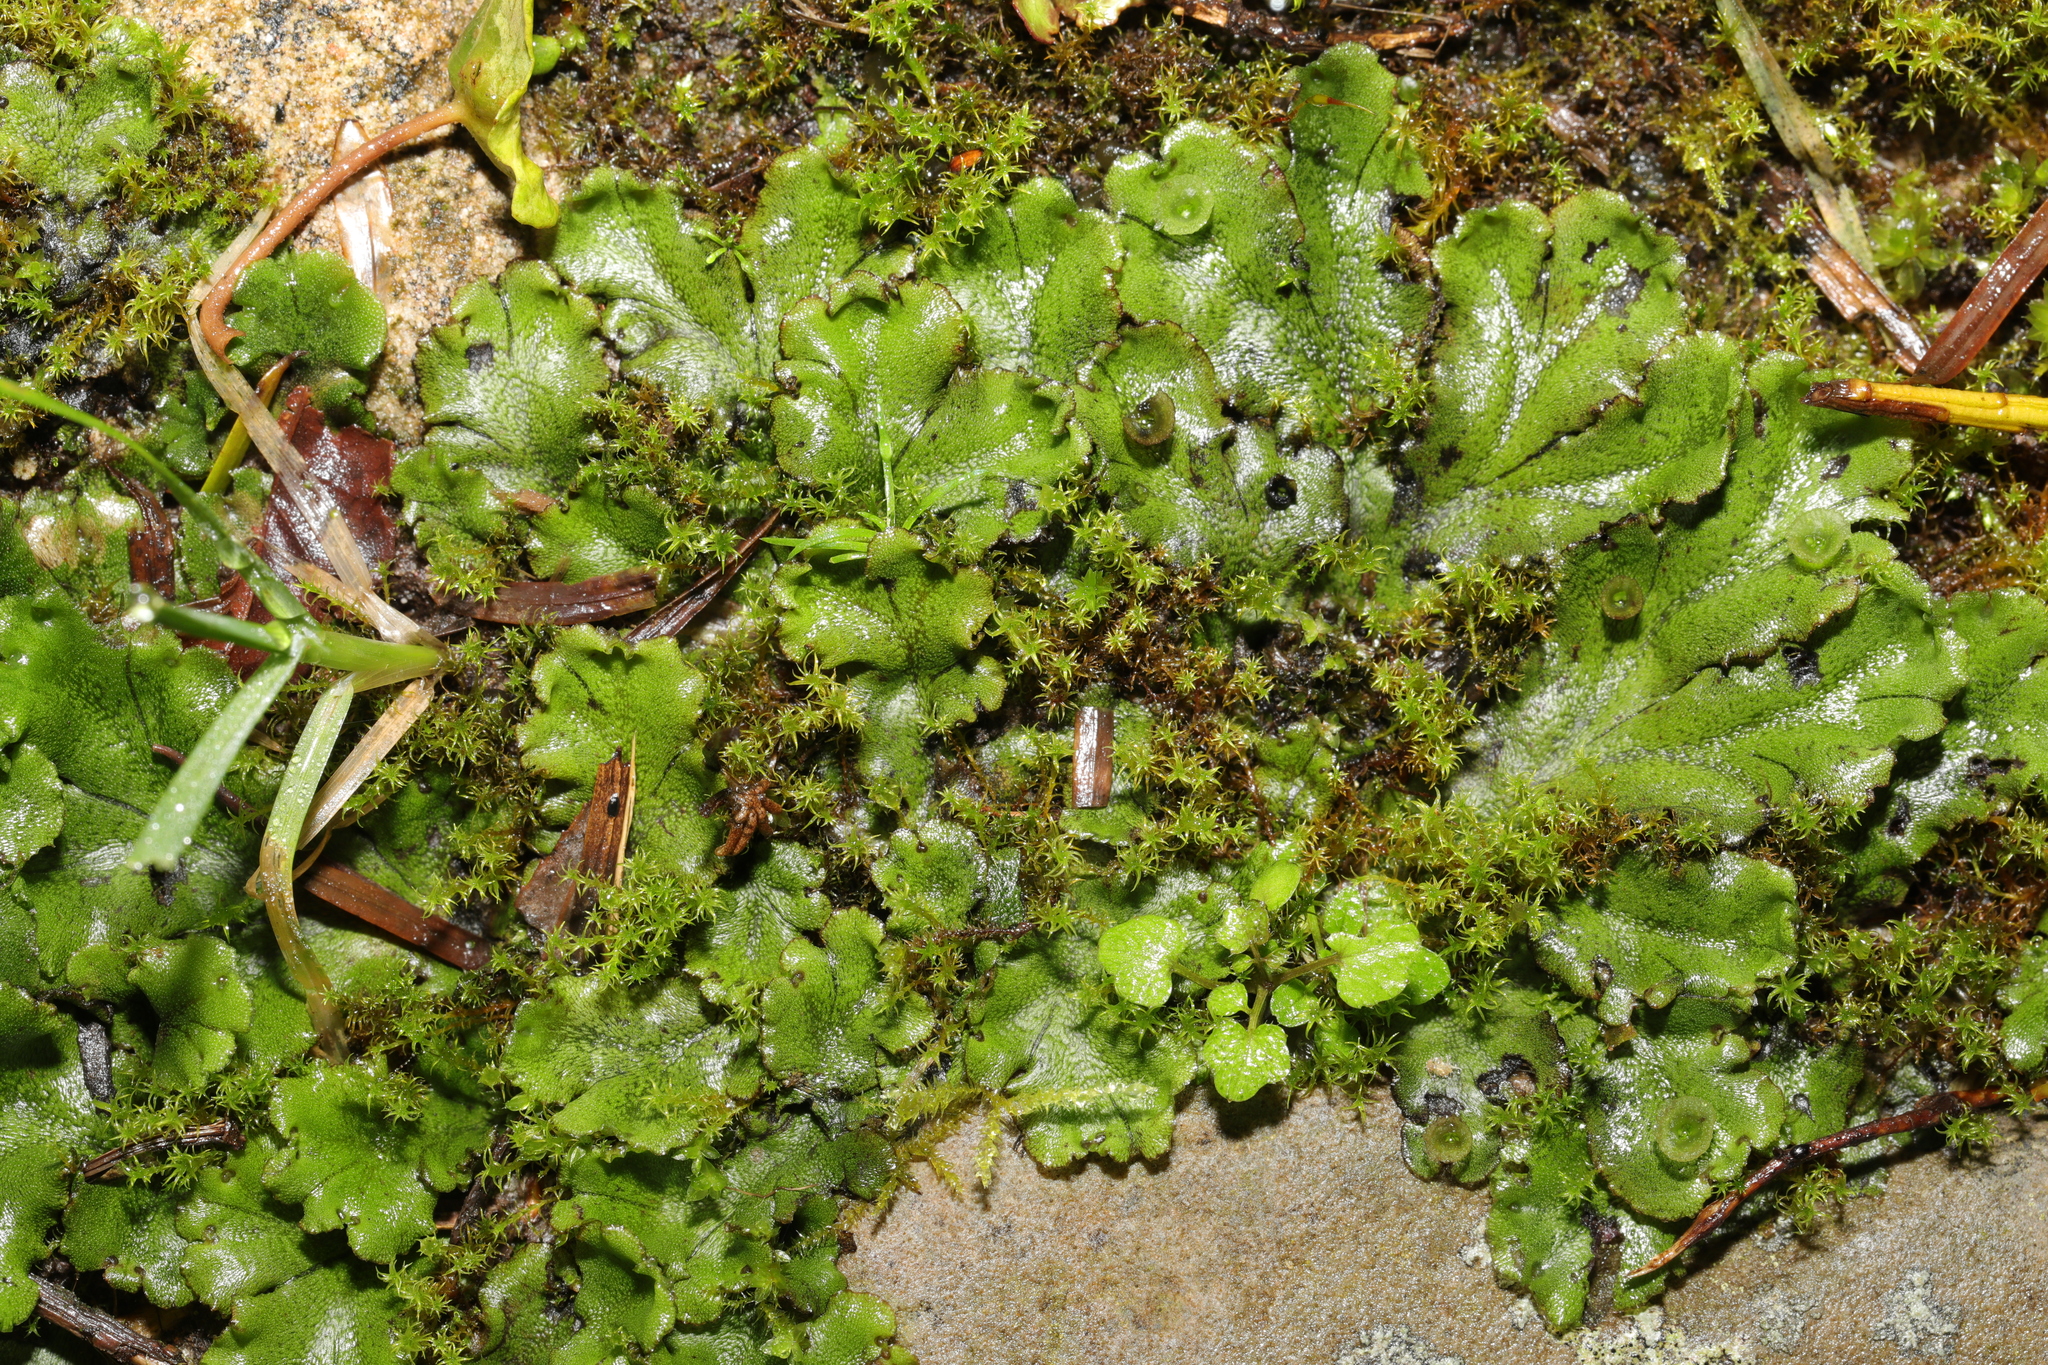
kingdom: Plantae
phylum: Marchantiophyta
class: Marchantiopsida
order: Marchantiales
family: Marchantiaceae
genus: Marchantia
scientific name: Marchantia polymorpha
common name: Common liverwort
